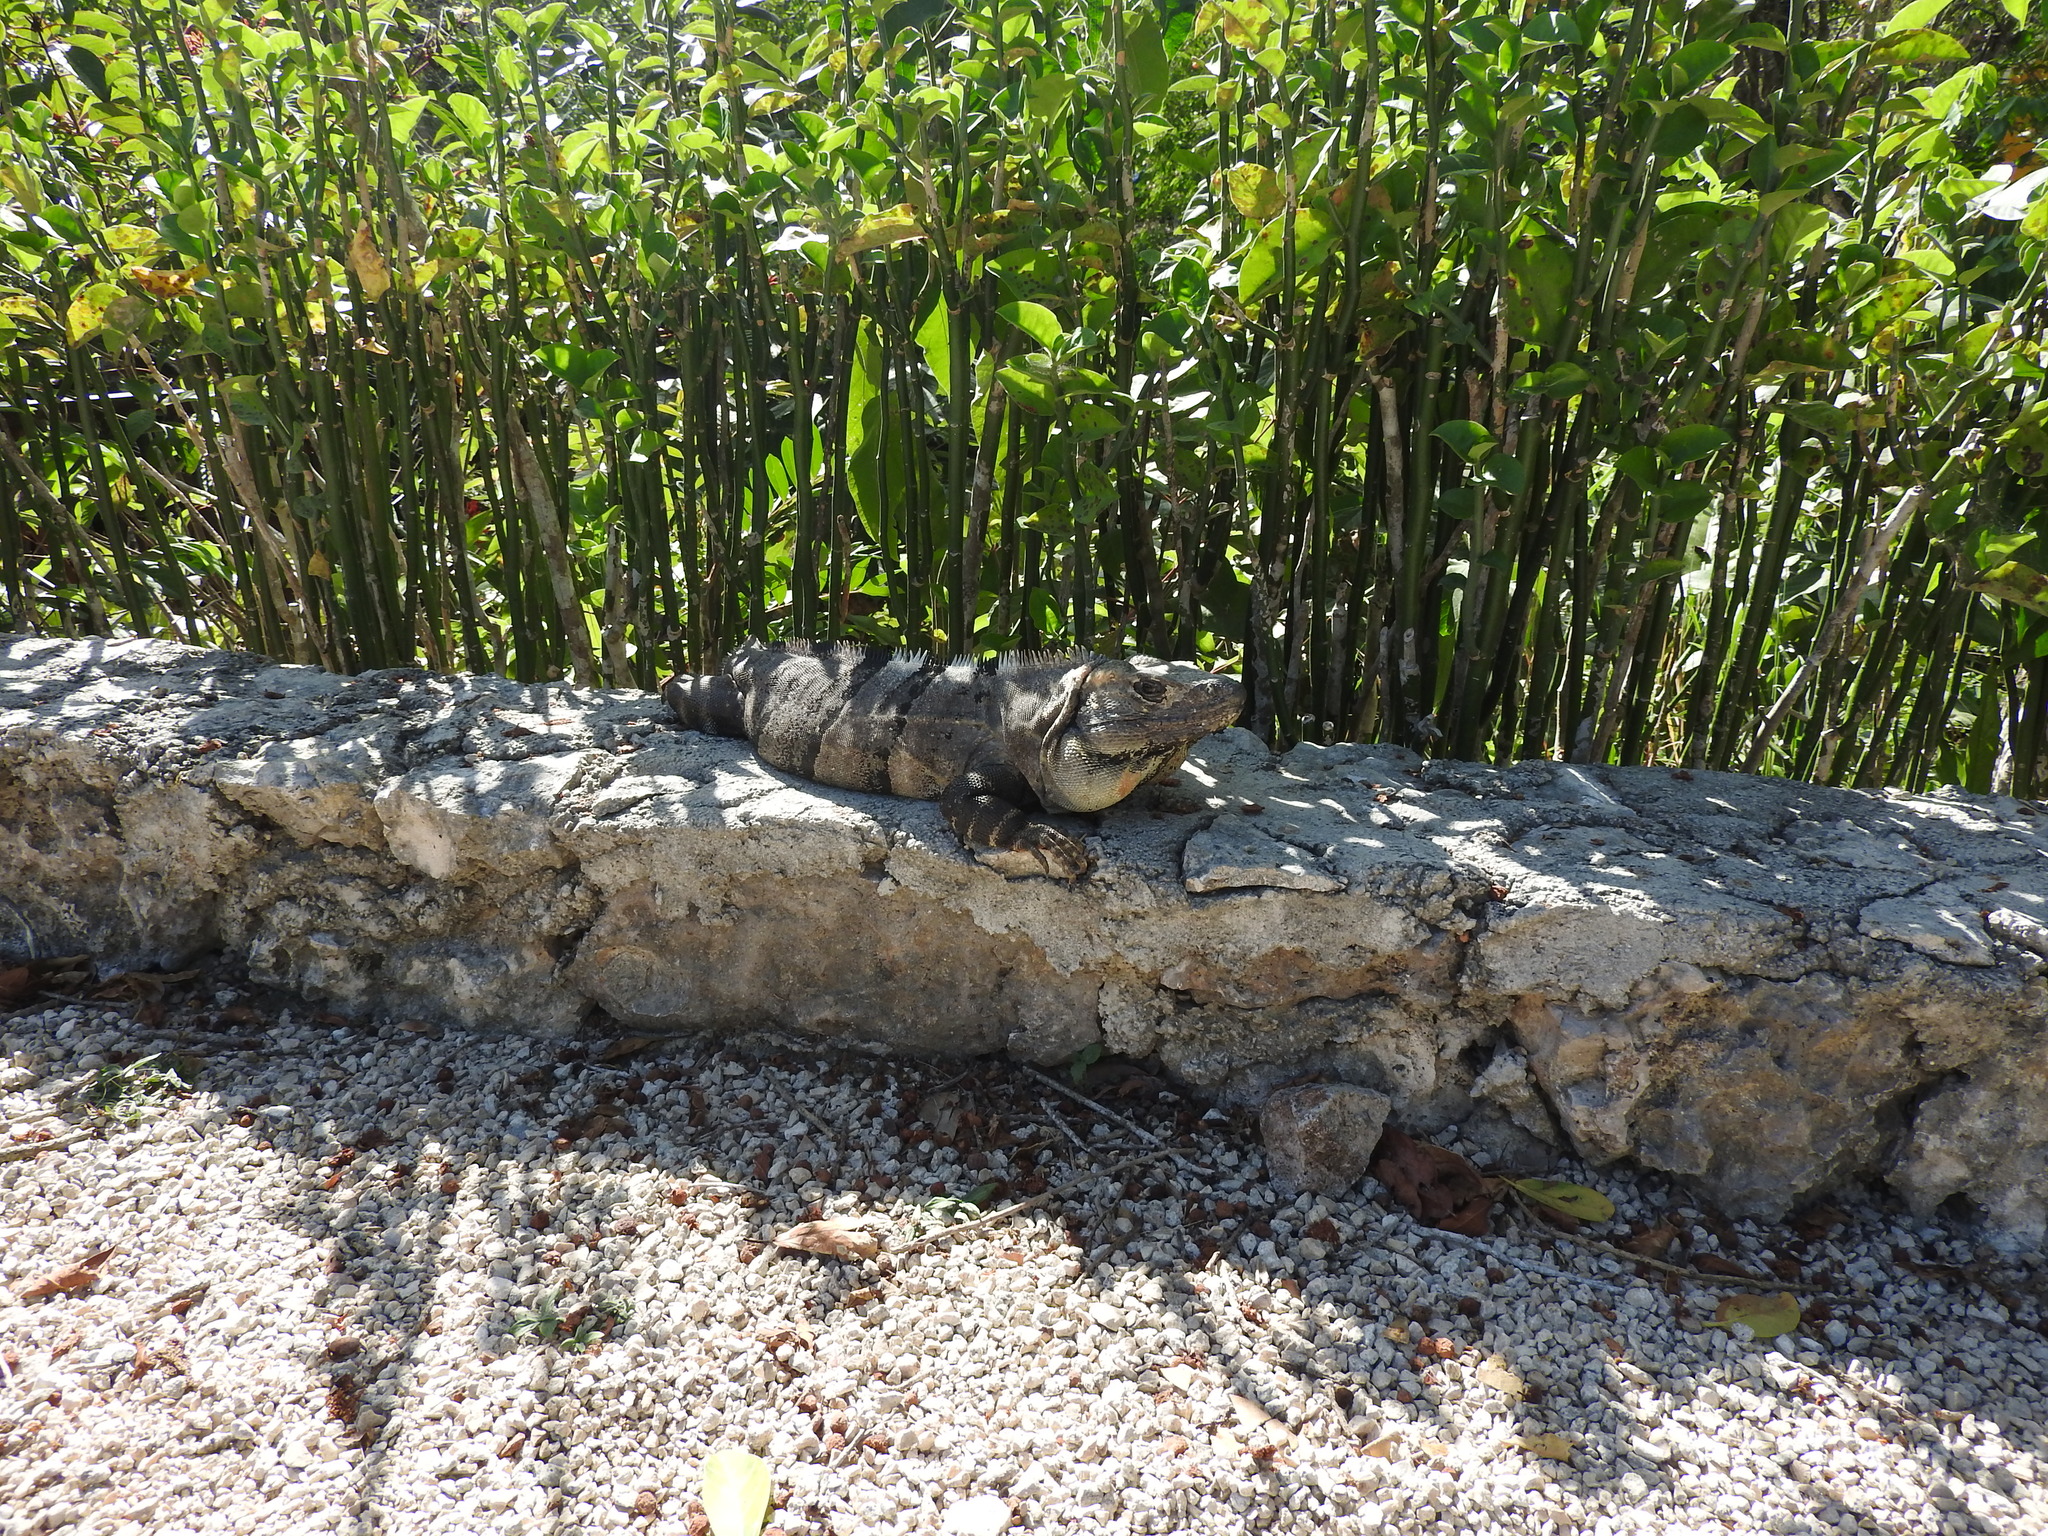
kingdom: Animalia
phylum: Chordata
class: Squamata
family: Iguanidae
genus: Ctenosaura
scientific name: Ctenosaura similis
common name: Black spiny-tailed iguana
